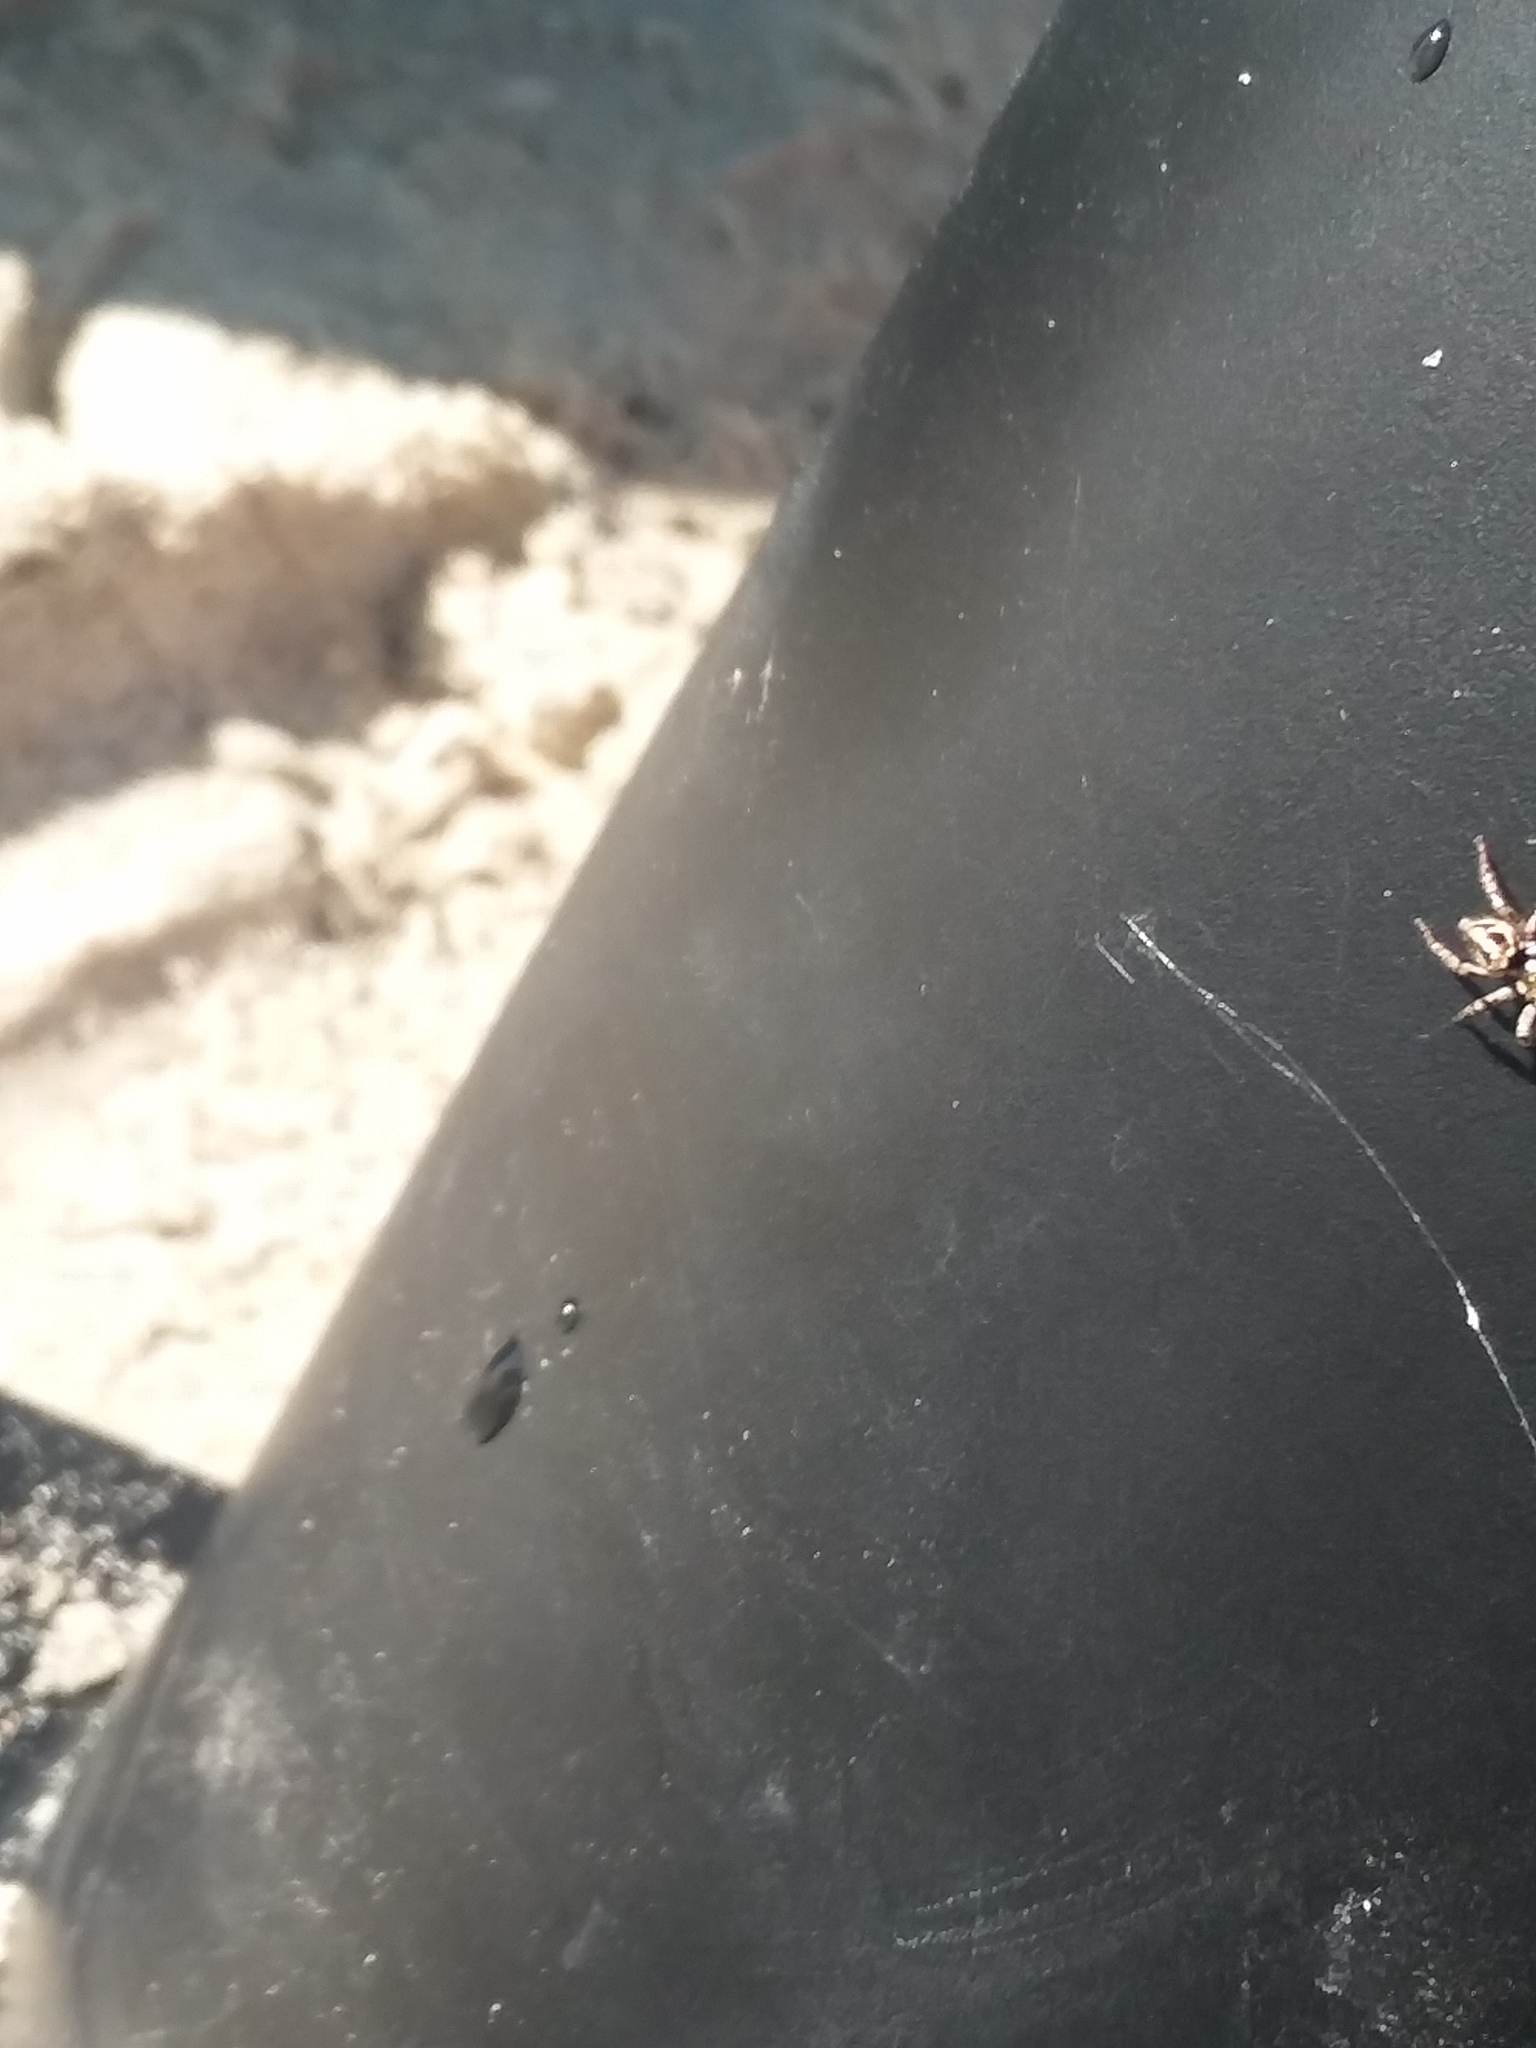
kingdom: Animalia
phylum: Arthropoda
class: Arachnida
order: Araneae
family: Salticidae
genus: Anasaitis
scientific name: Anasaitis canosa
